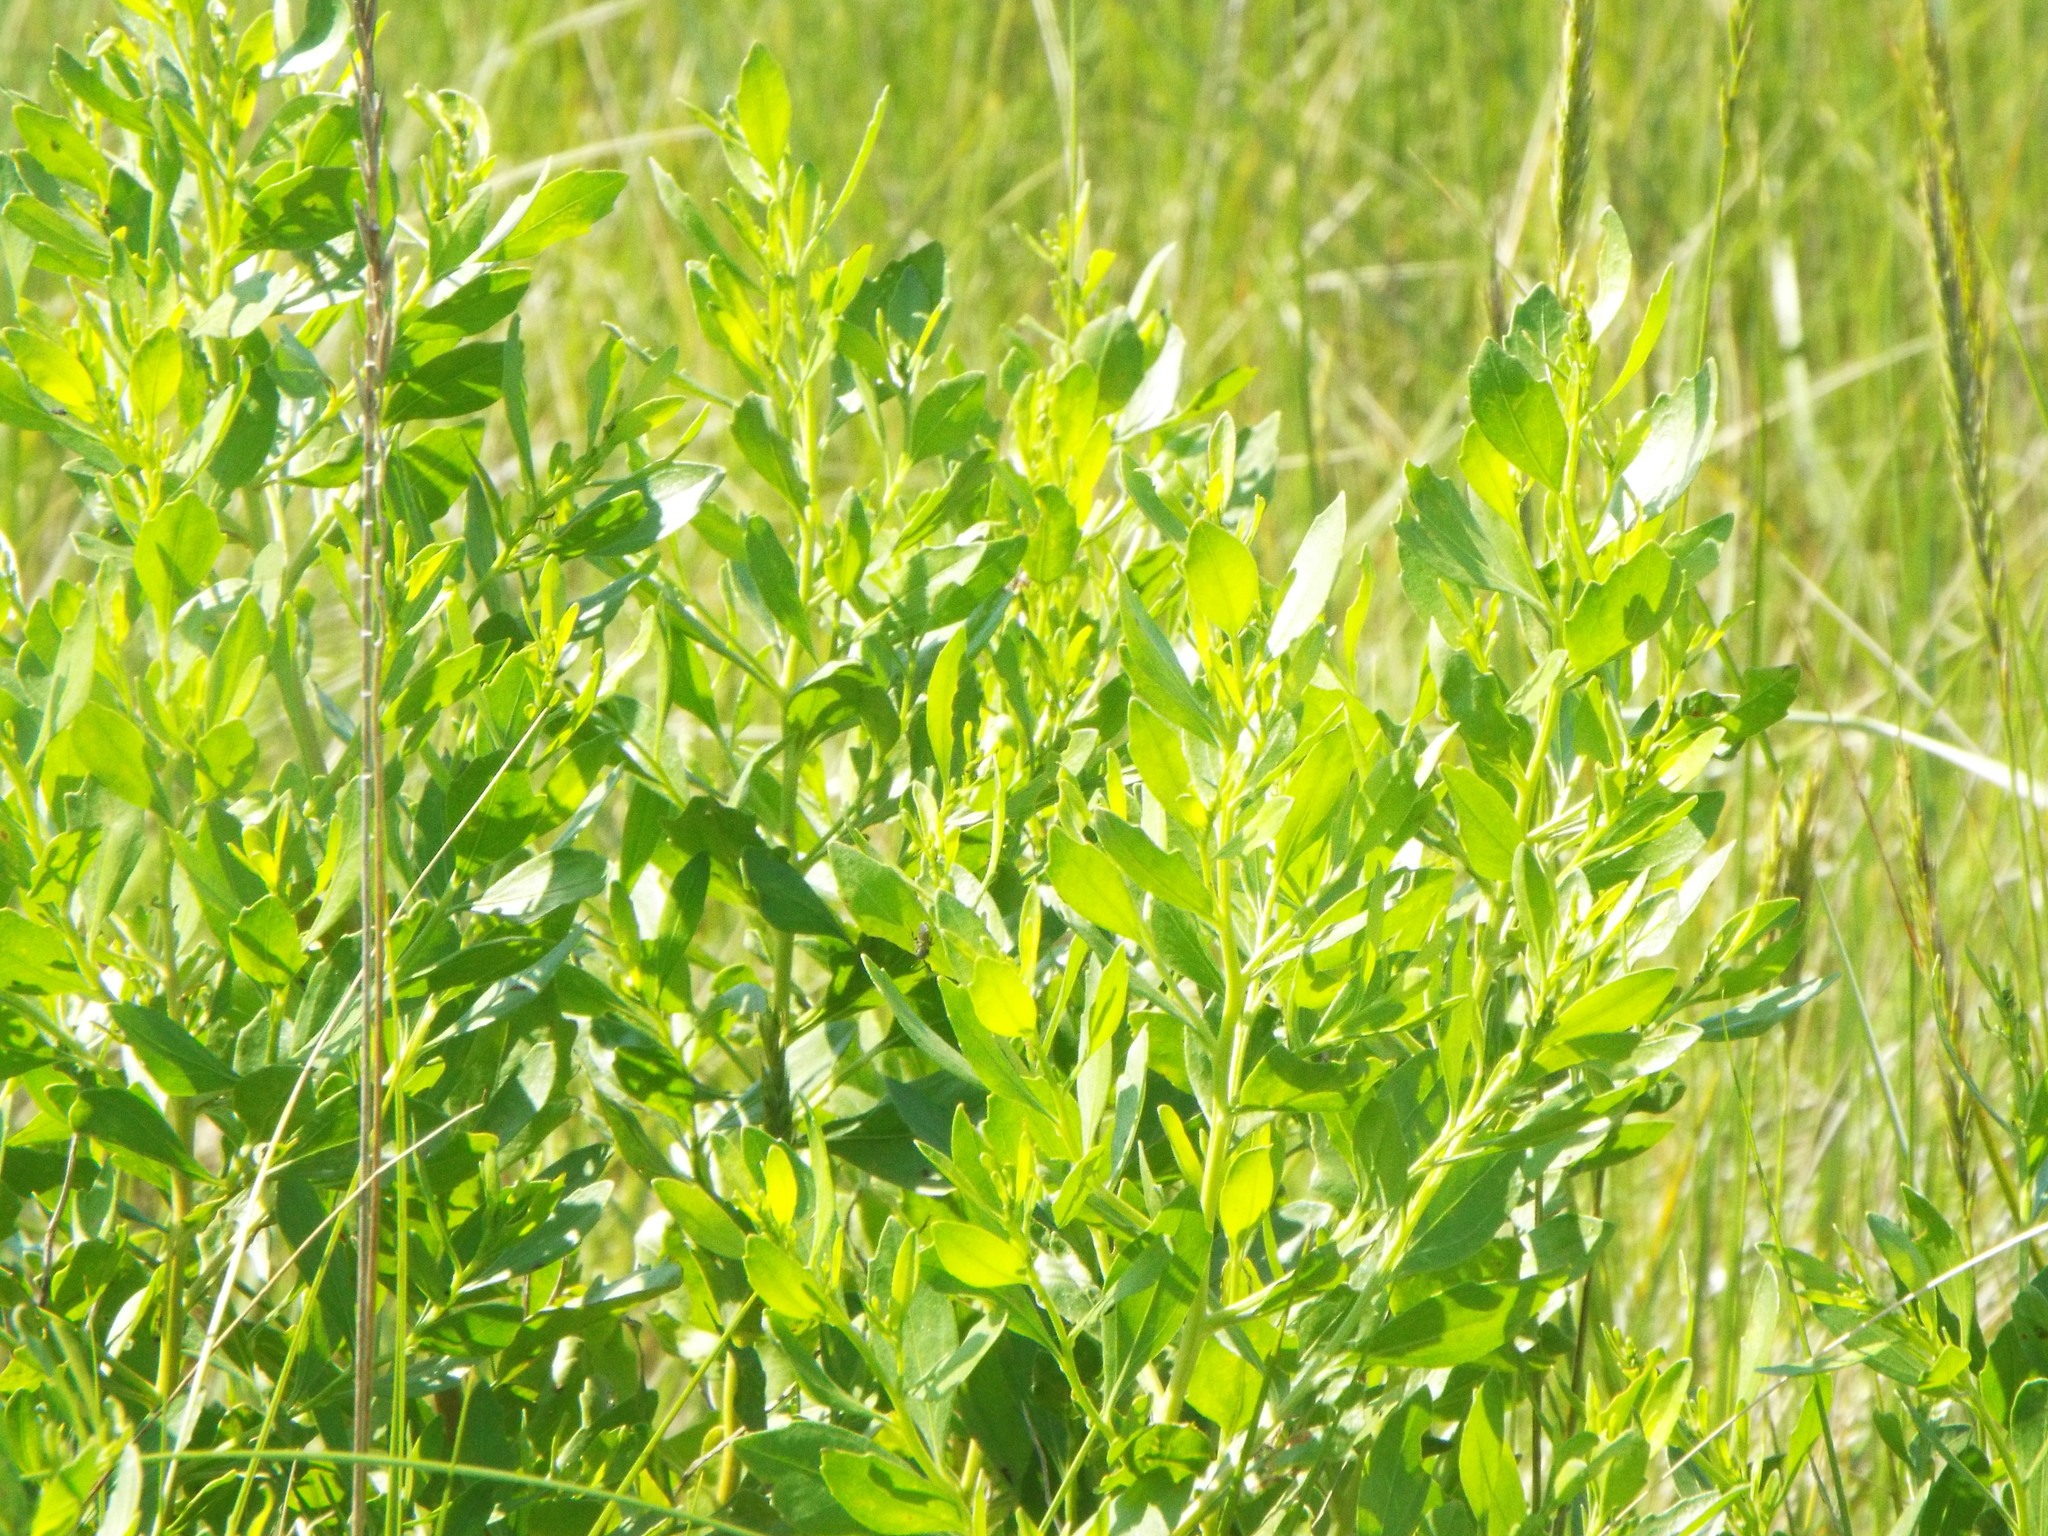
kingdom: Plantae
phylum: Tracheophyta
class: Magnoliopsida
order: Asterales
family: Asteraceae
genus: Baccharis
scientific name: Baccharis halimifolia
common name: Eastern baccharis
